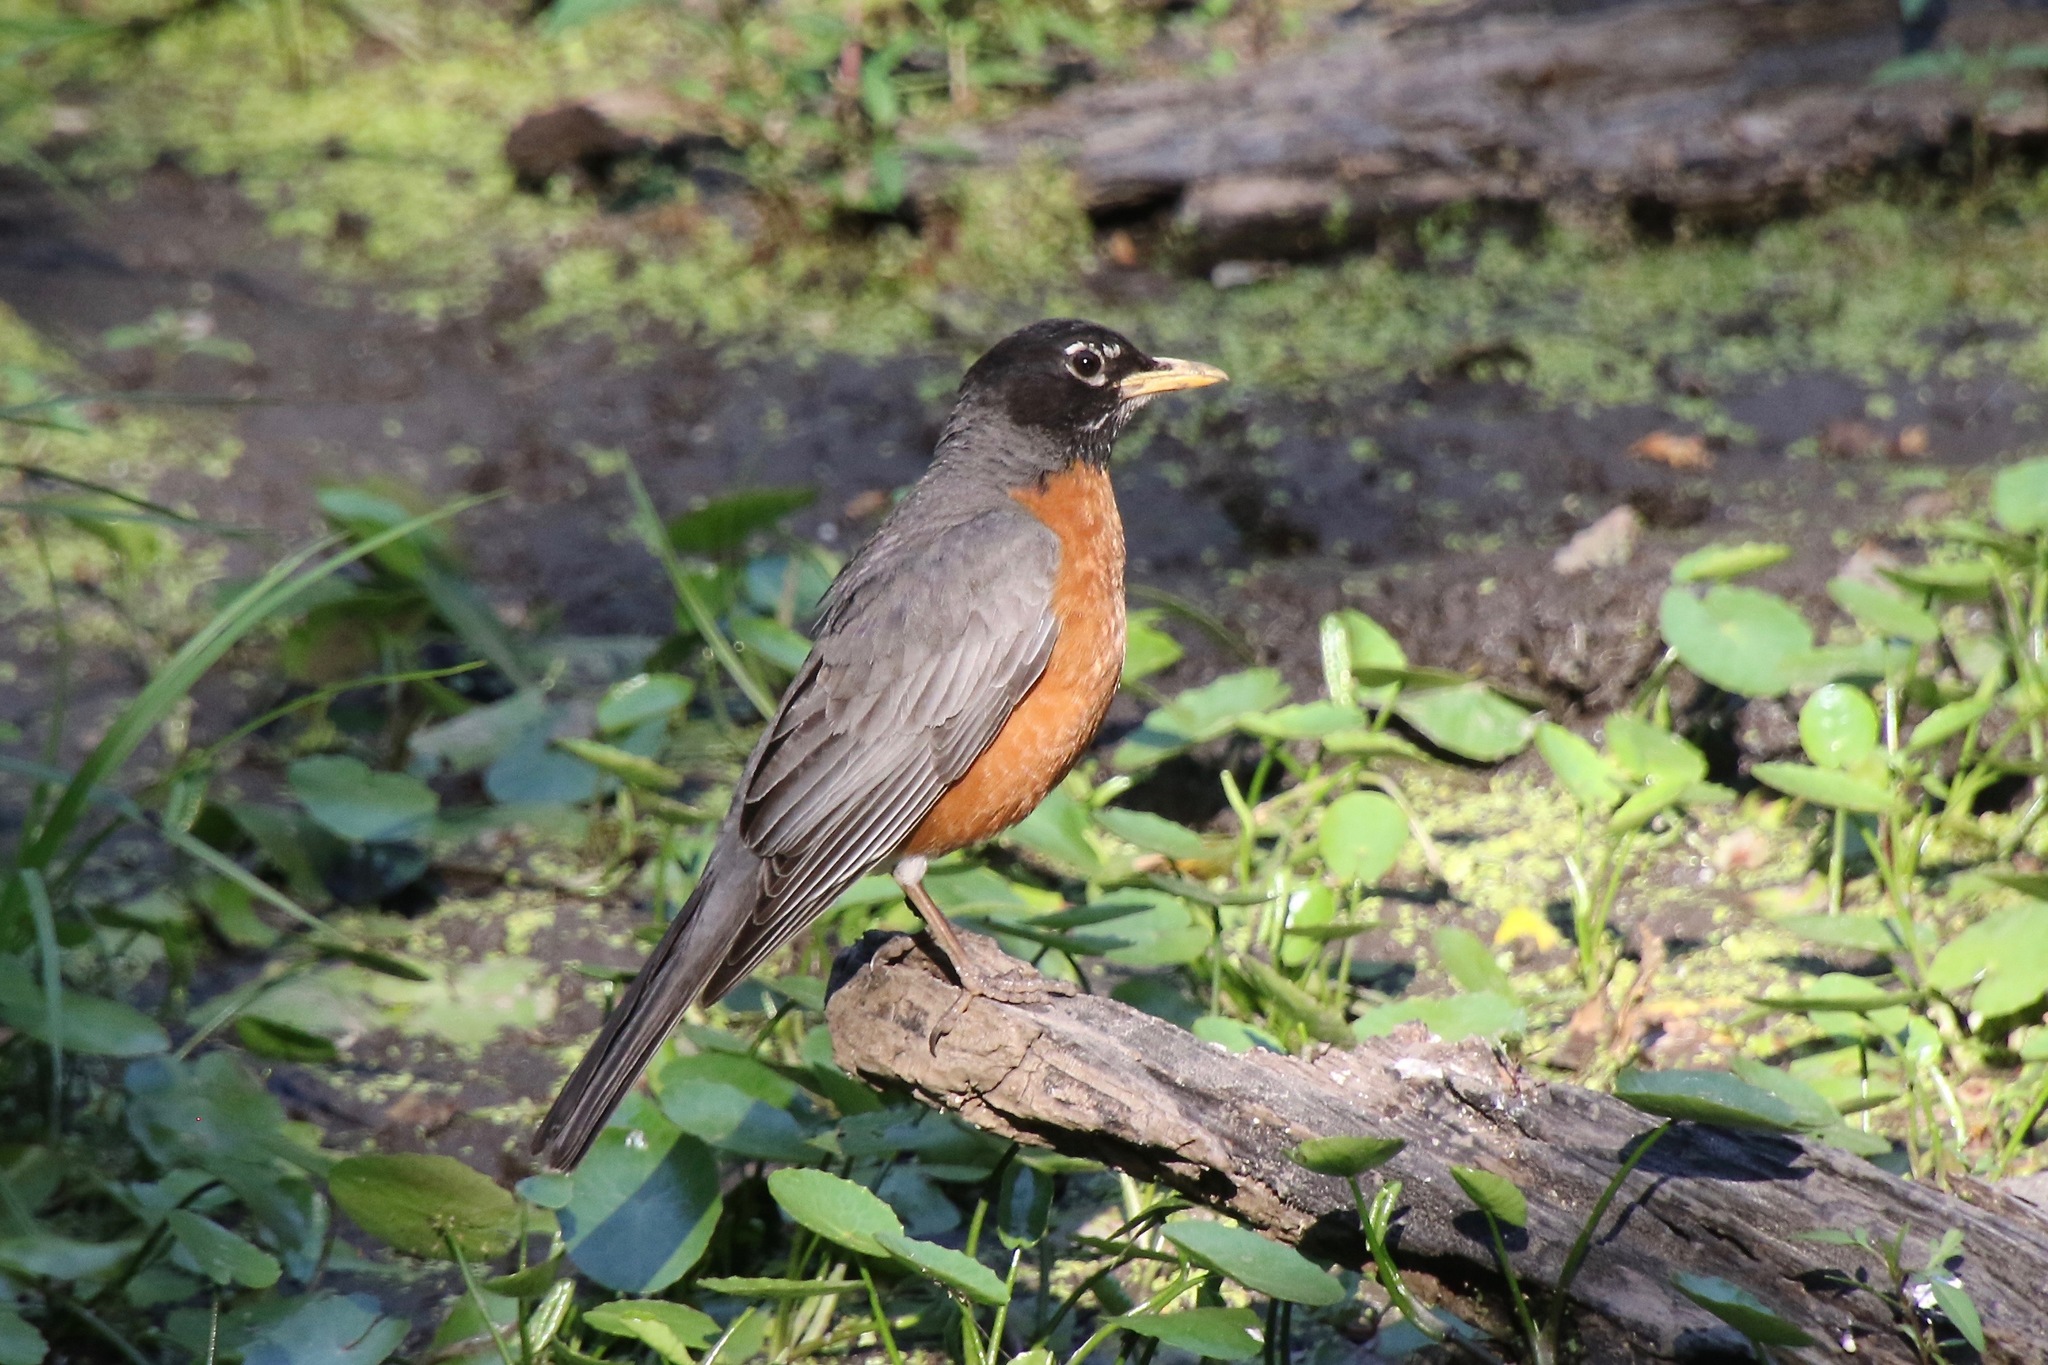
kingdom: Animalia
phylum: Chordata
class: Aves
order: Passeriformes
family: Turdidae
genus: Turdus
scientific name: Turdus migratorius
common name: American robin
